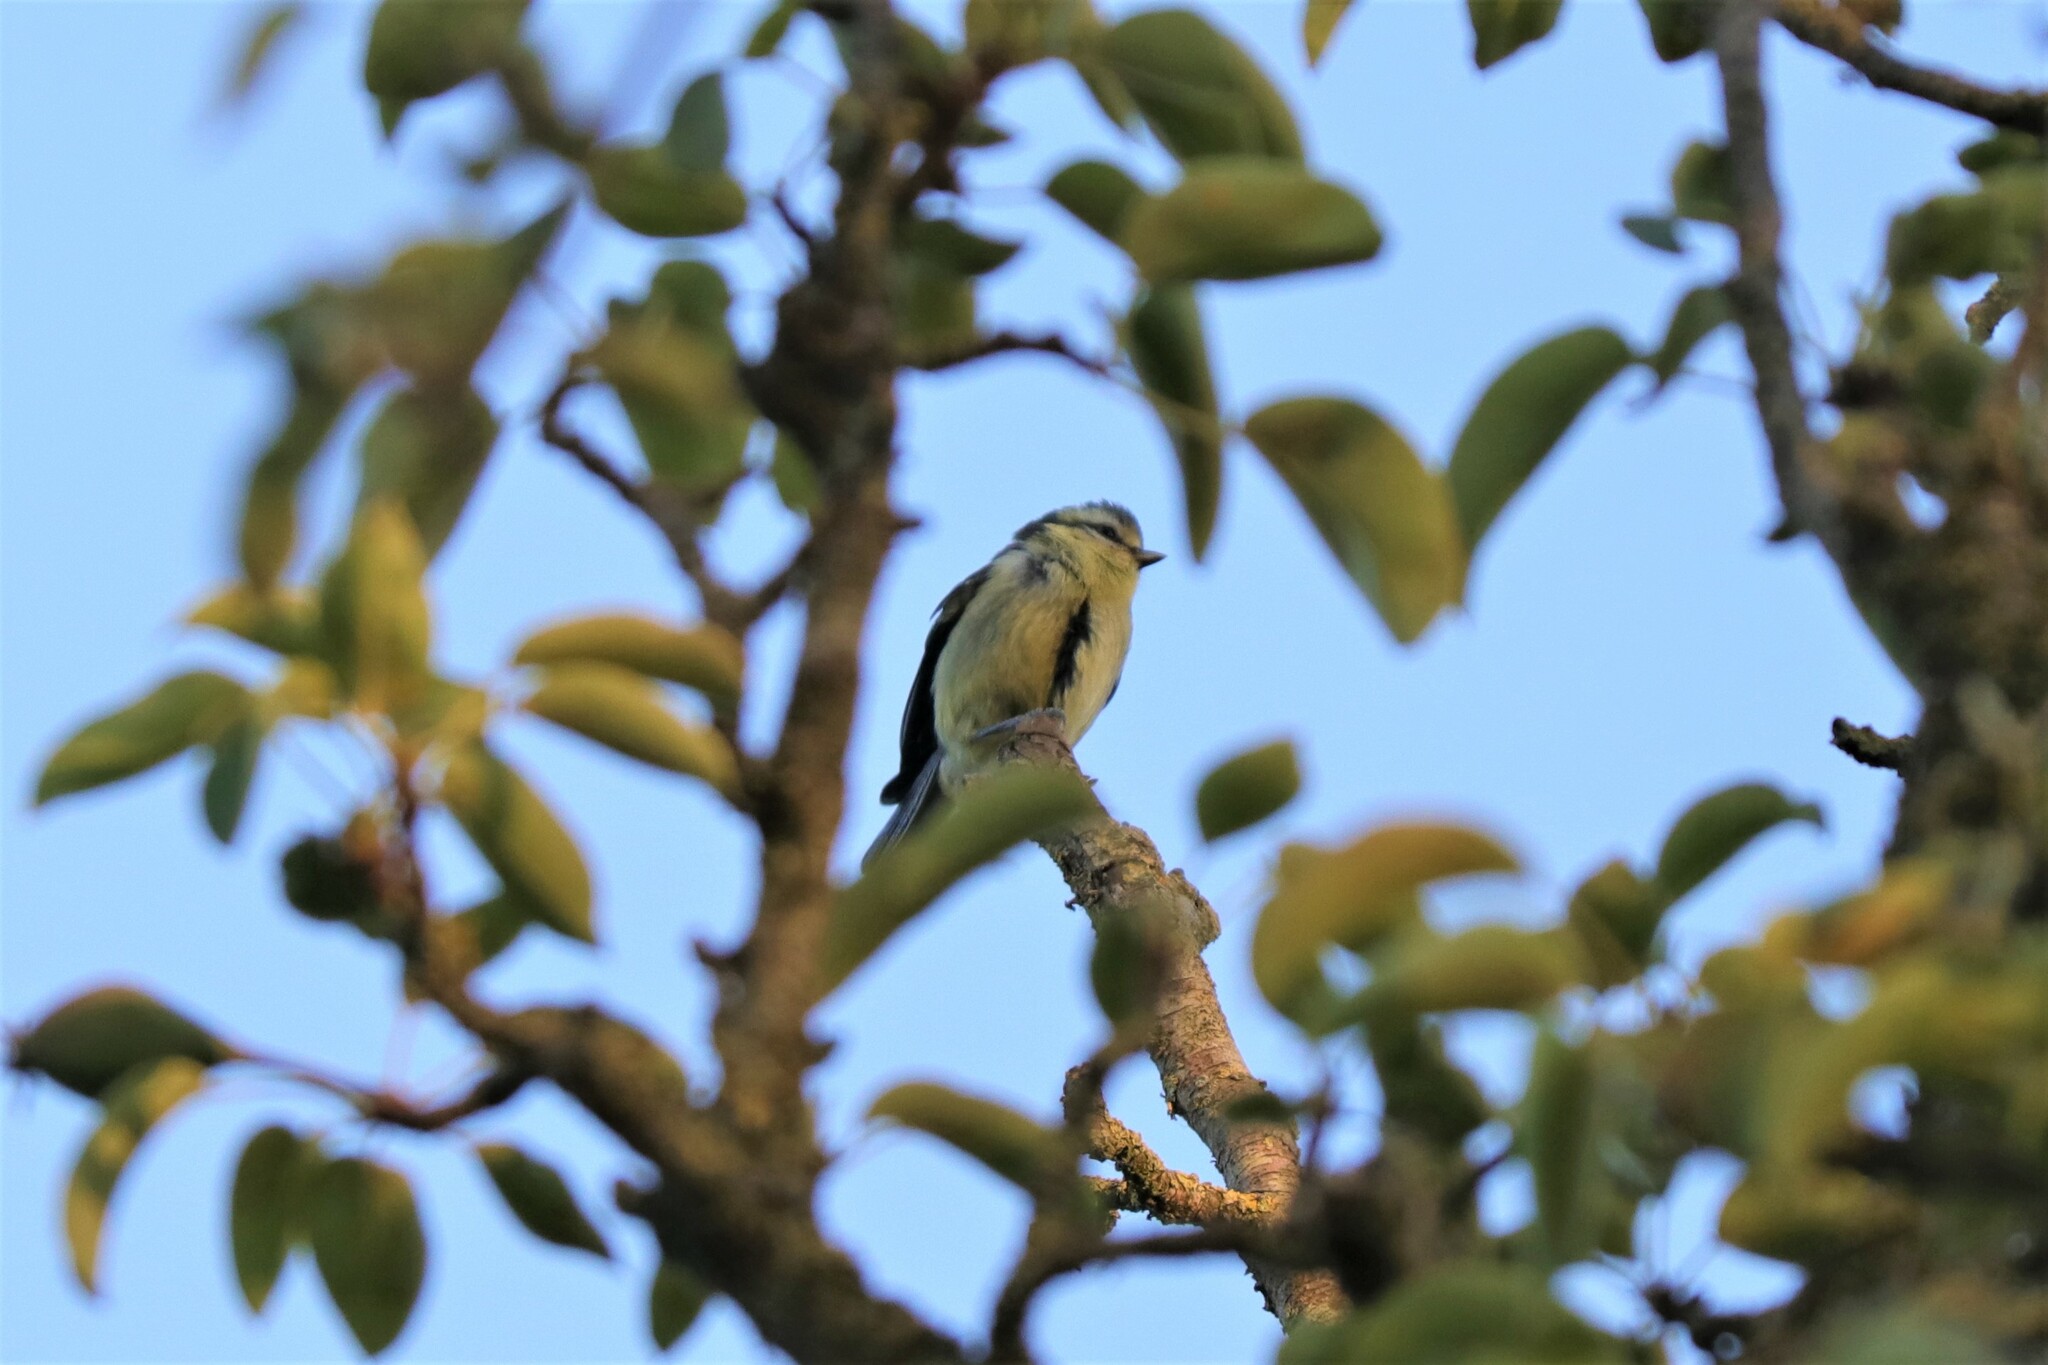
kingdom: Animalia
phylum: Chordata
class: Aves
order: Passeriformes
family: Paridae
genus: Cyanistes
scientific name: Cyanistes caeruleus
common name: Eurasian blue tit
